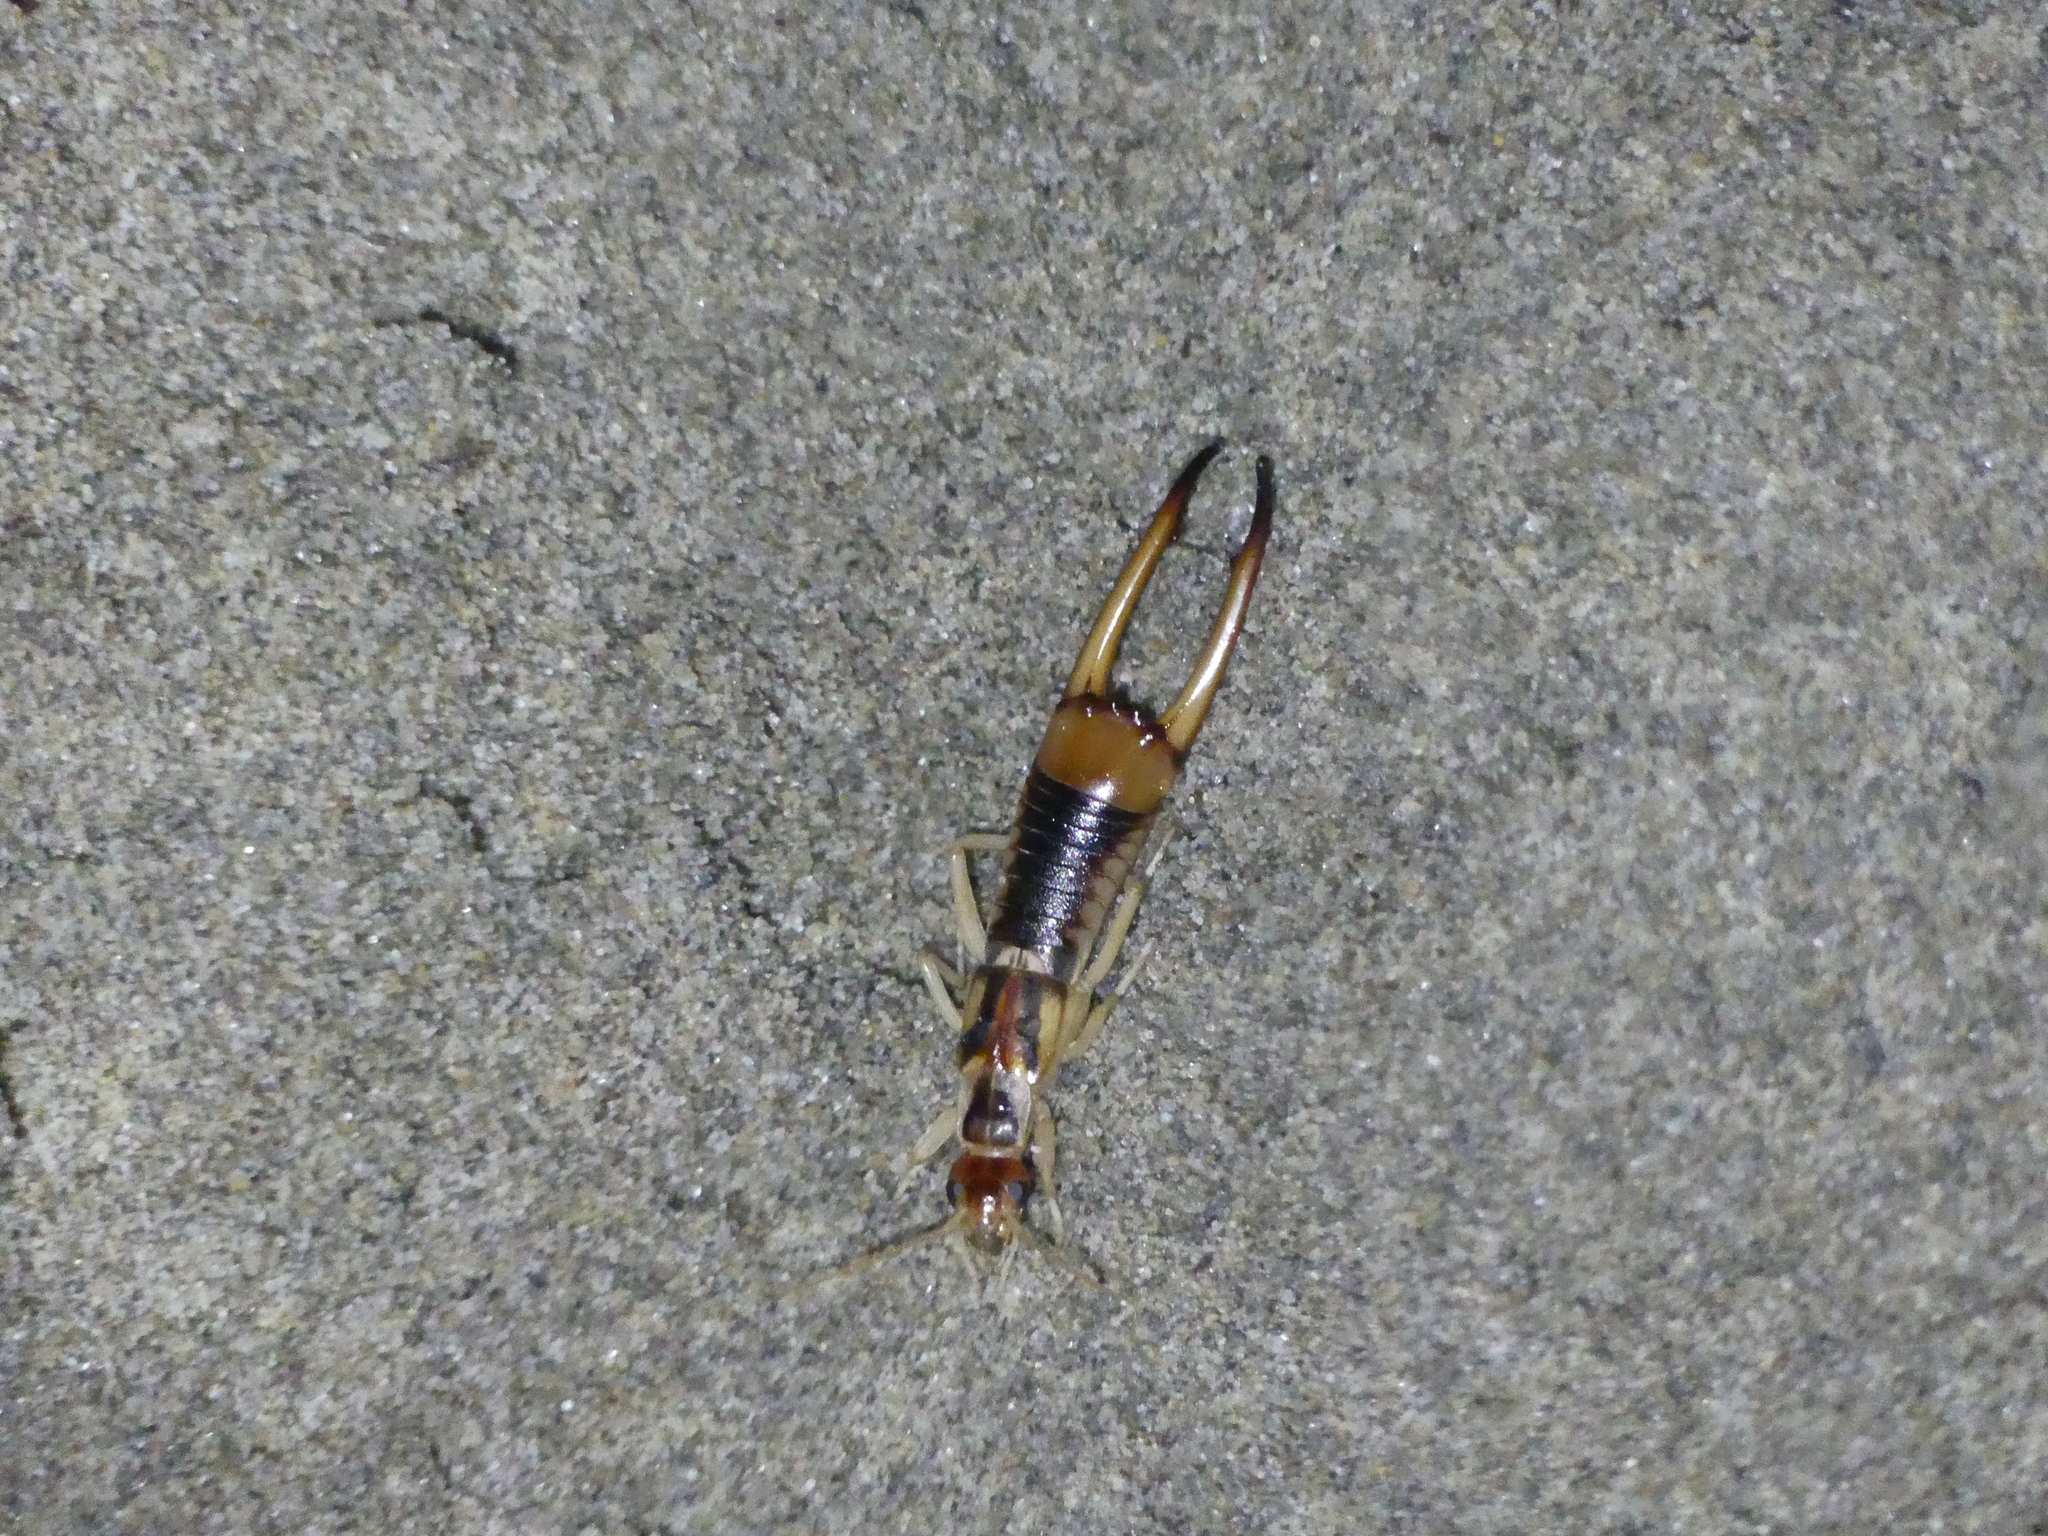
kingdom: Animalia
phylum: Arthropoda
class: Insecta
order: Dermaptera
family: Labiduridae
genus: Labidura
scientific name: Labidura riparia
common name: Striped earwig
